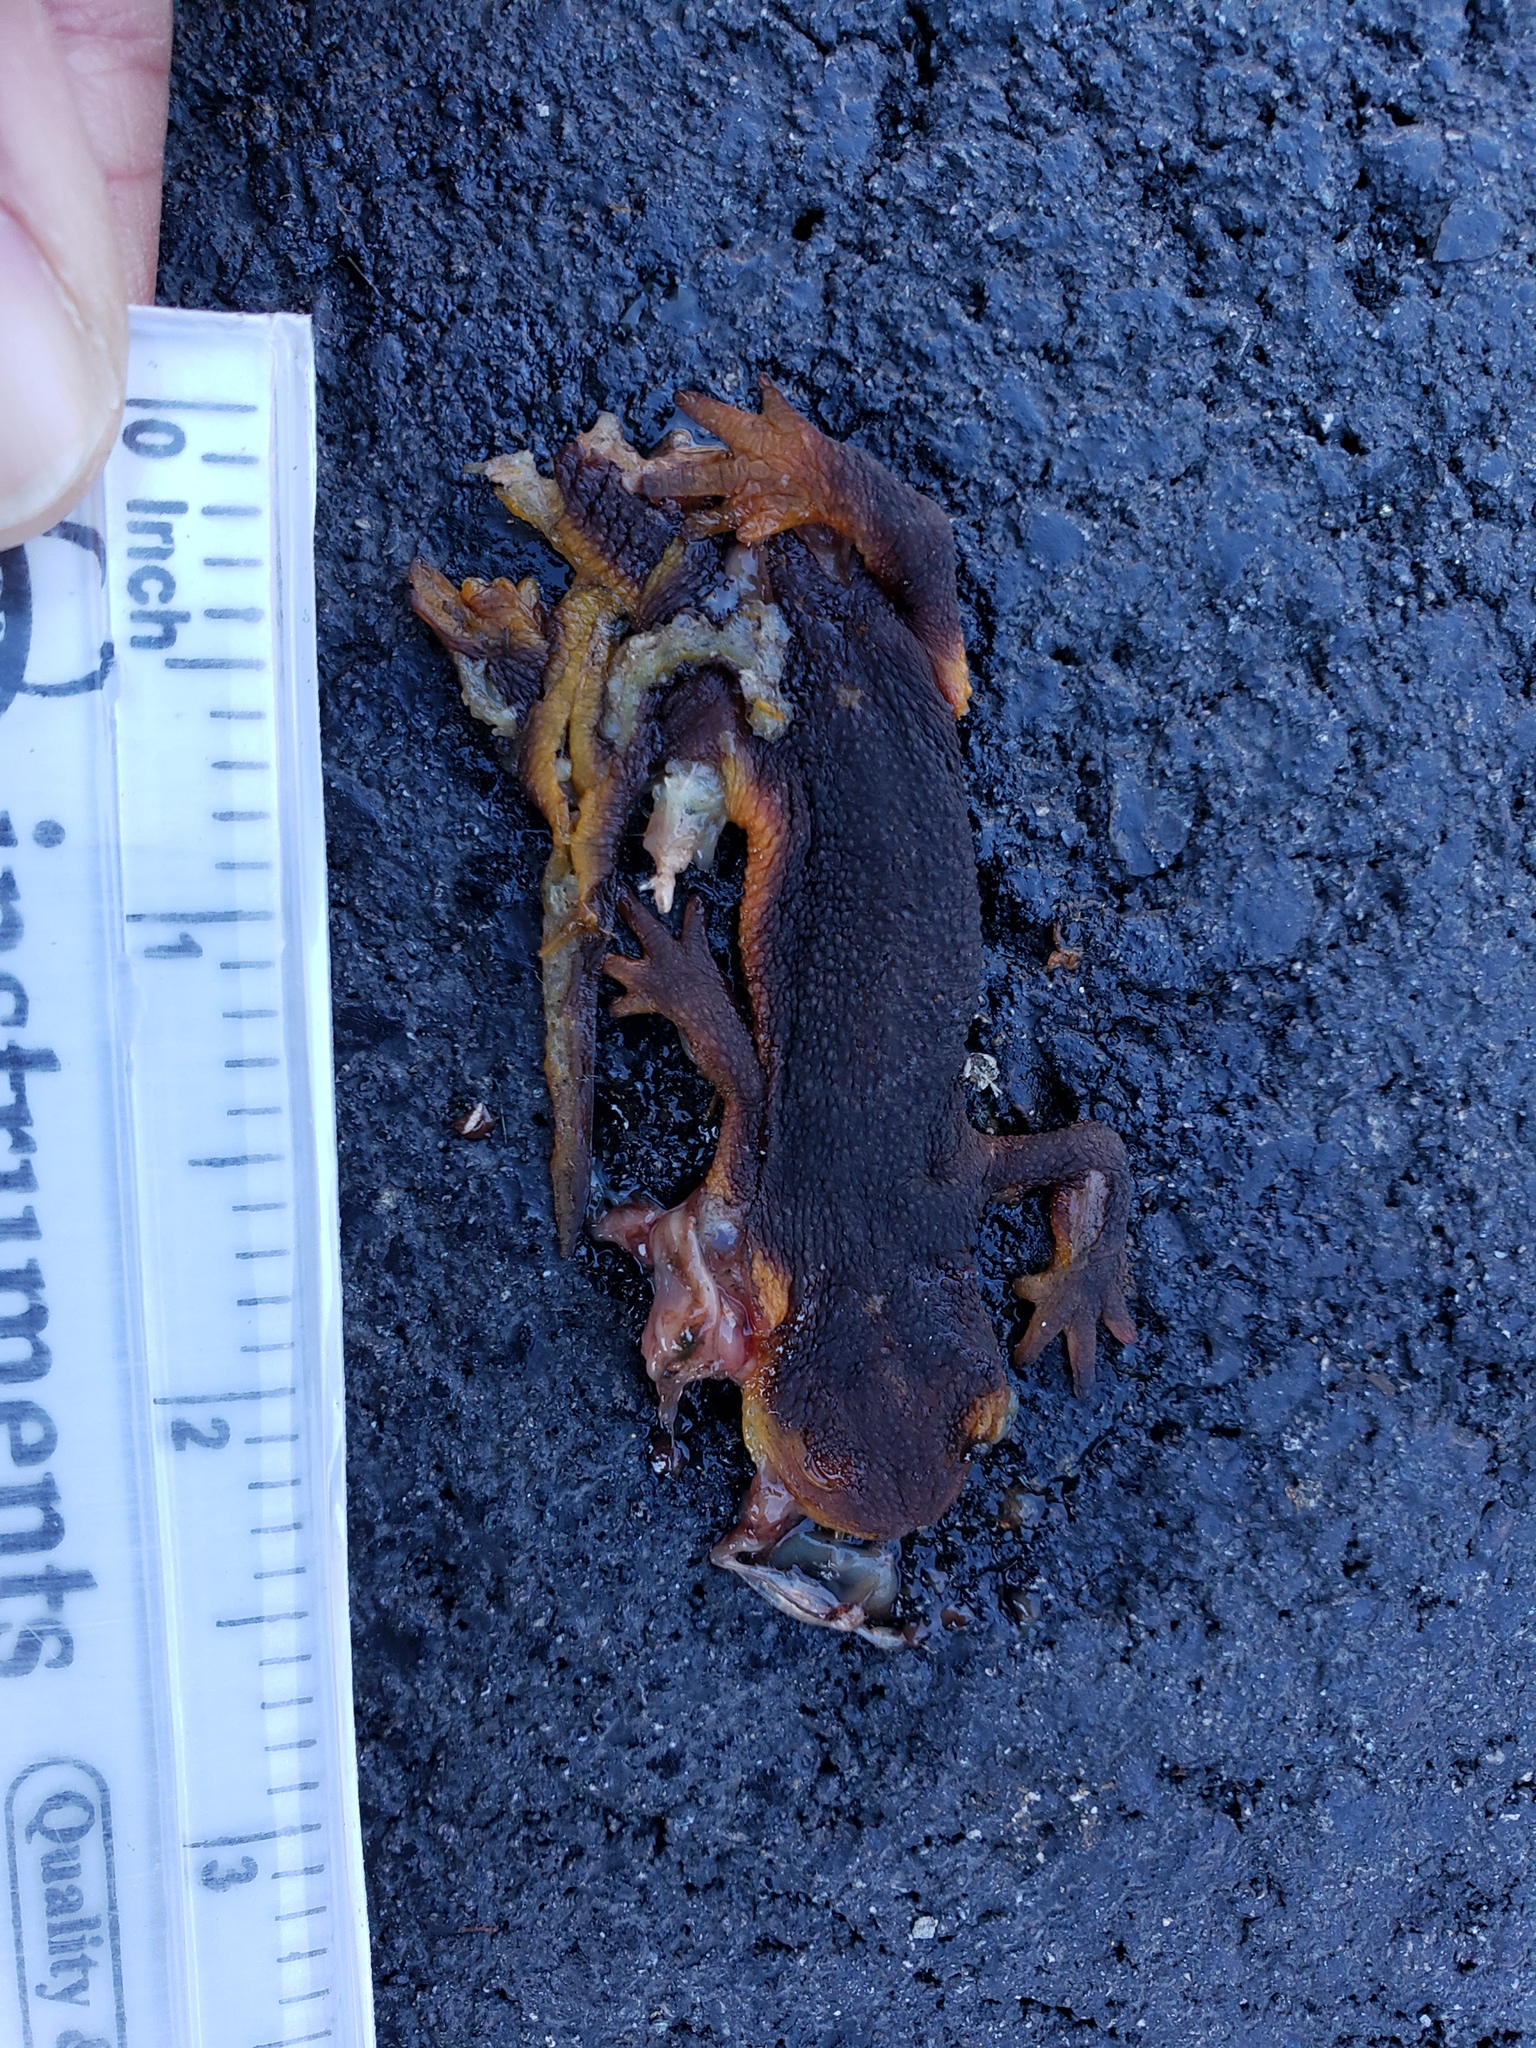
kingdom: Animalia
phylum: Chordata
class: Amphibia
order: Caudata
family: Salamandridae
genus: Taricha
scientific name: Taricha
